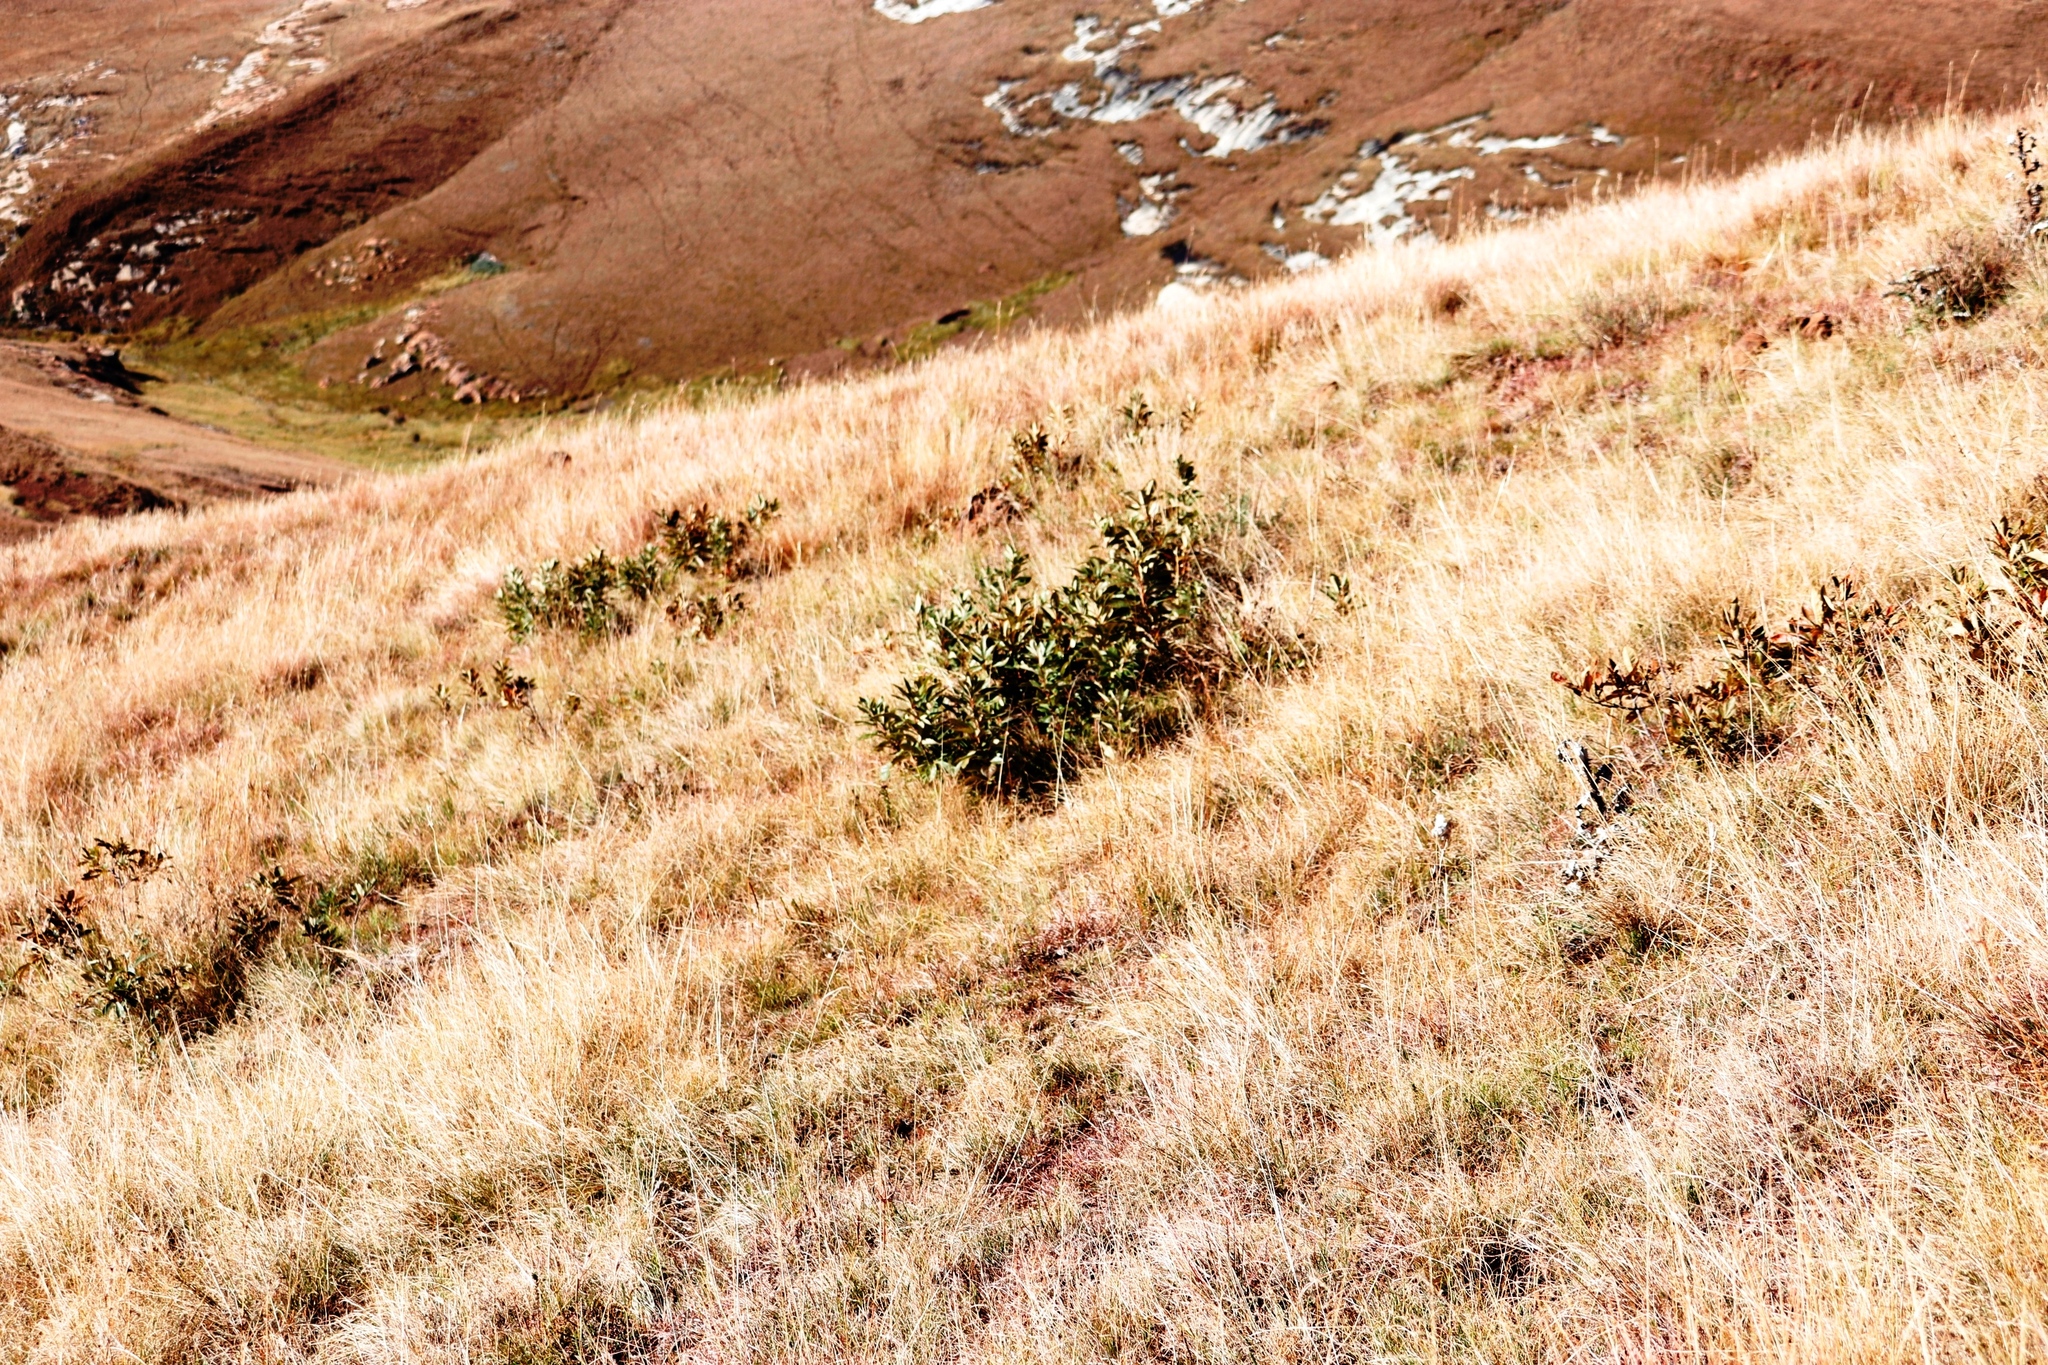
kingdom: Plantae
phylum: Tracheophyta
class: Magnoliopsida
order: Proteales
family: Proteaceae
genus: Protea
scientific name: Protea caffra
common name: Common sugarbush
